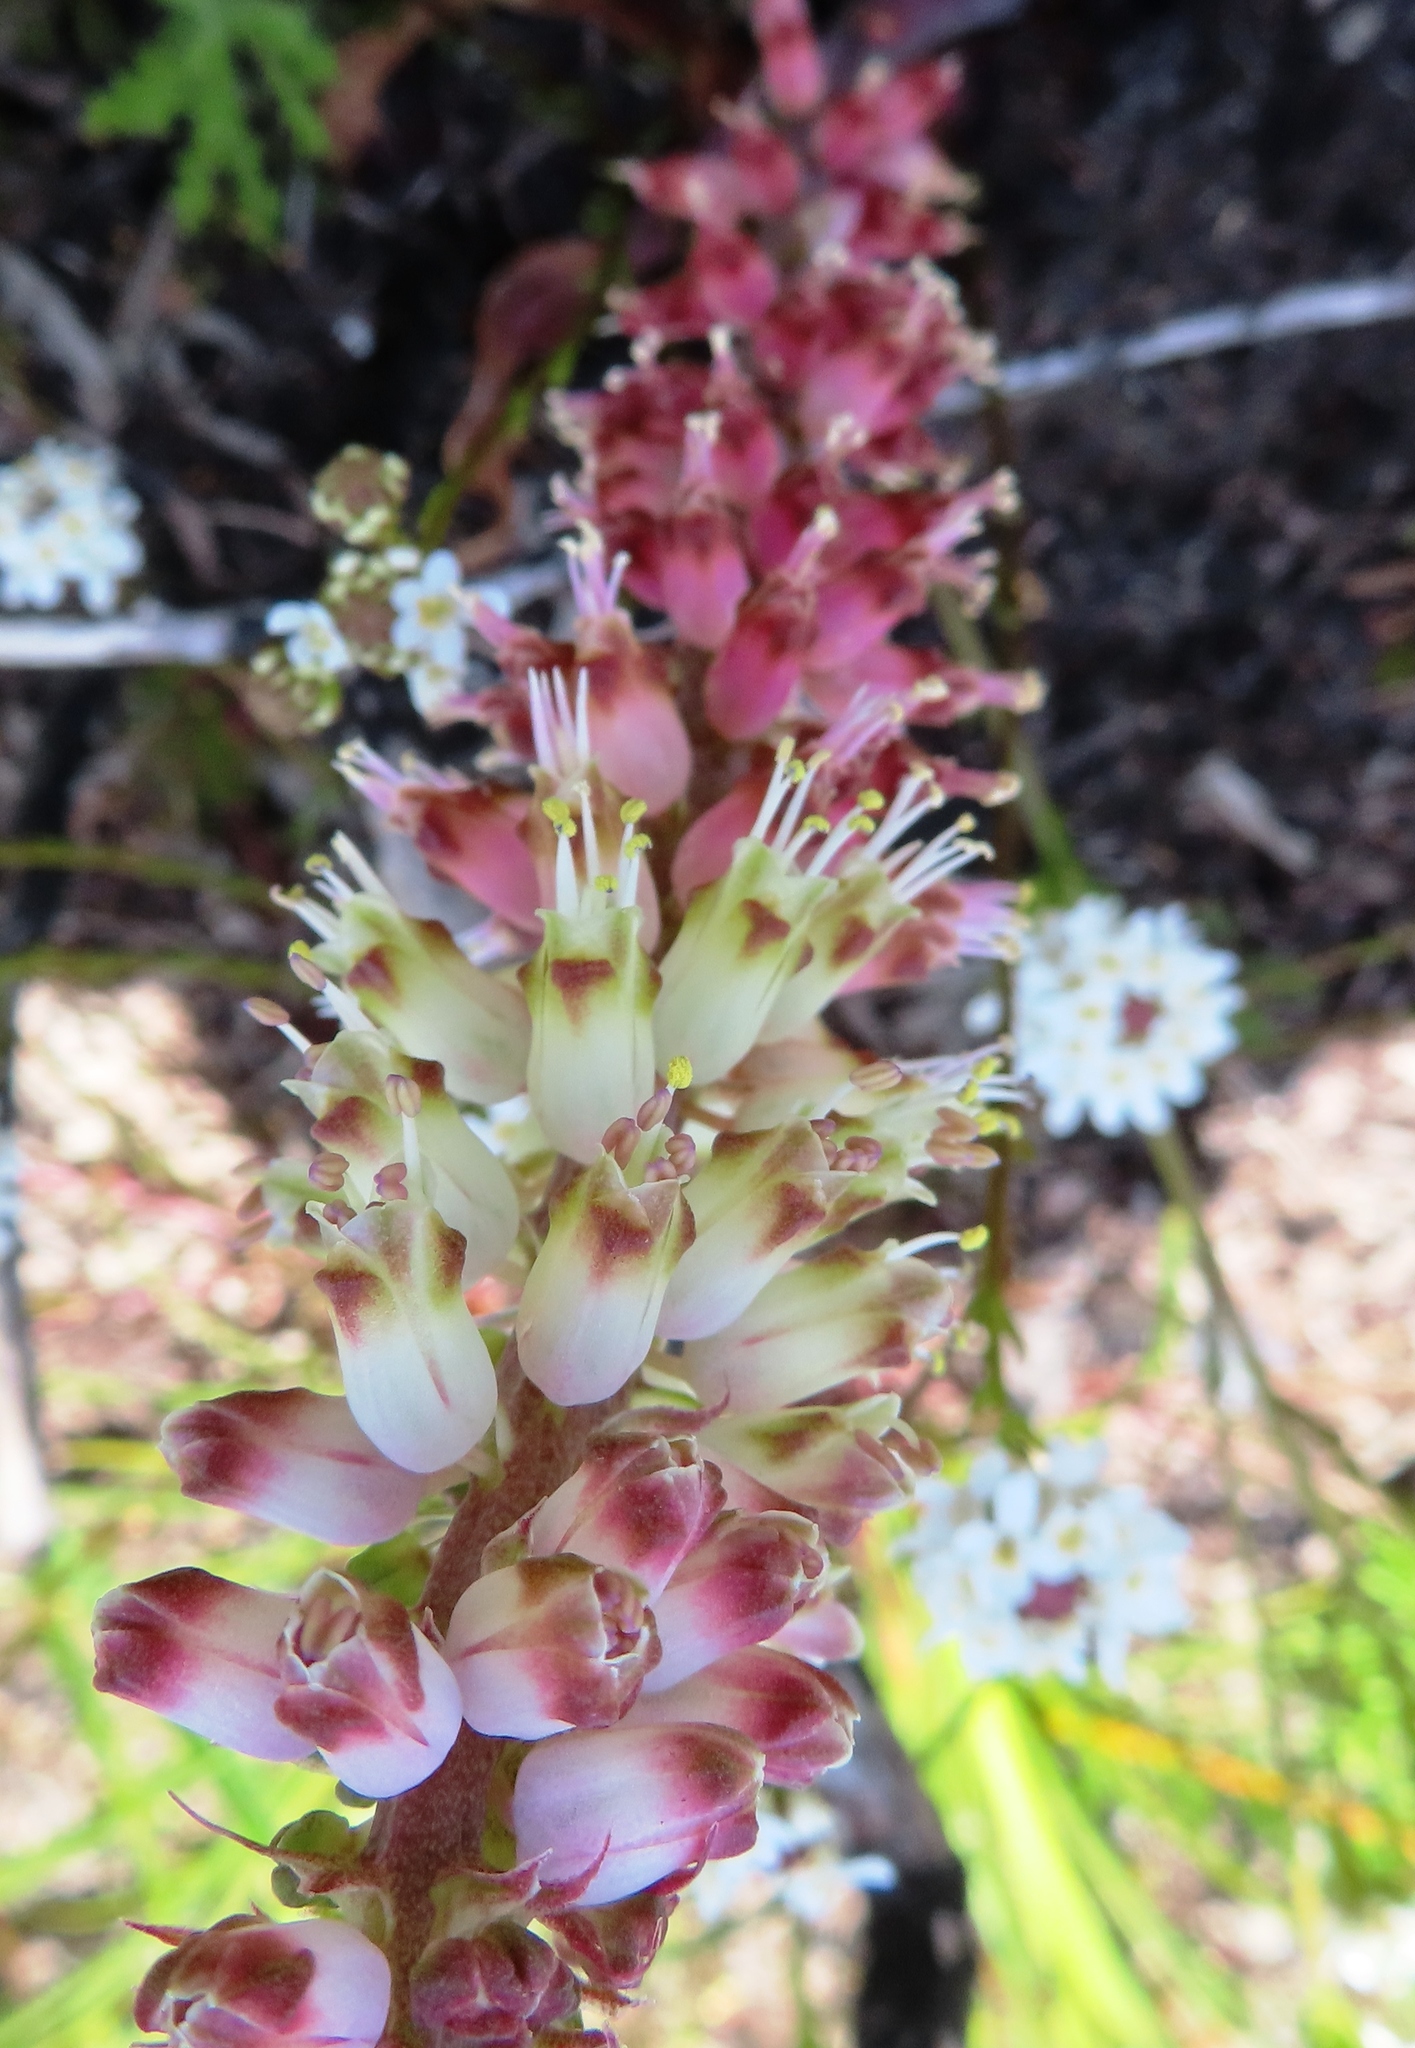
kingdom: Plantae
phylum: Tracheophyta
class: Liliopsida
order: Asparagales
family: Asparagaceae
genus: Lachenalia
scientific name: Lachenalia lutzeyeri
